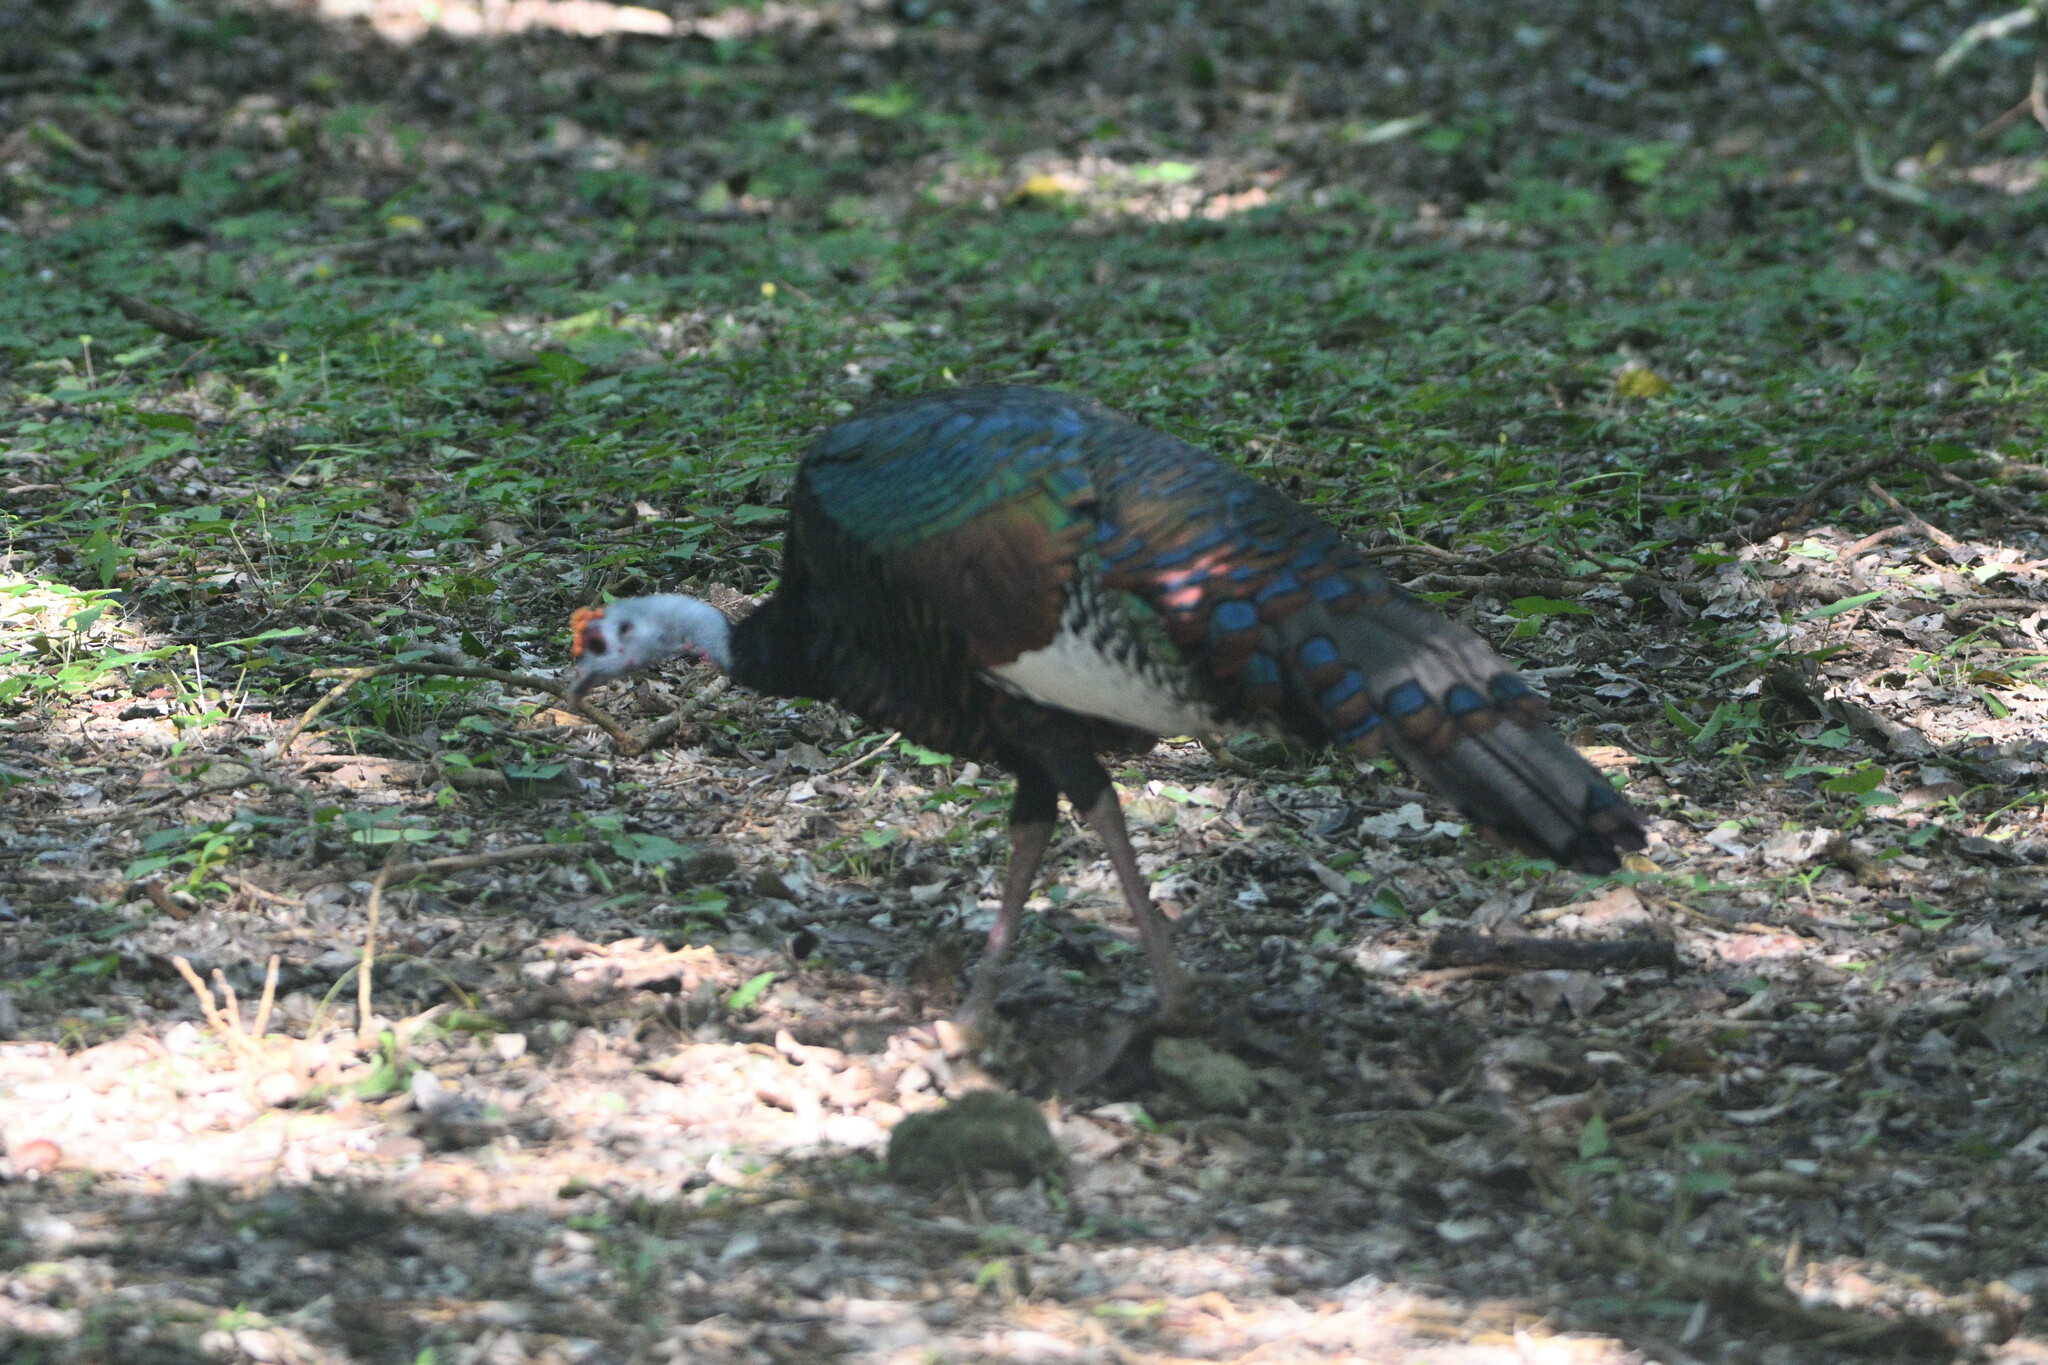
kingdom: Animalia
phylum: Chordata
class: Aves
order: Galliformes
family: Phasianidae
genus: Meleagris
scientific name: Meleagris ocellata
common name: Ocellated turkey
